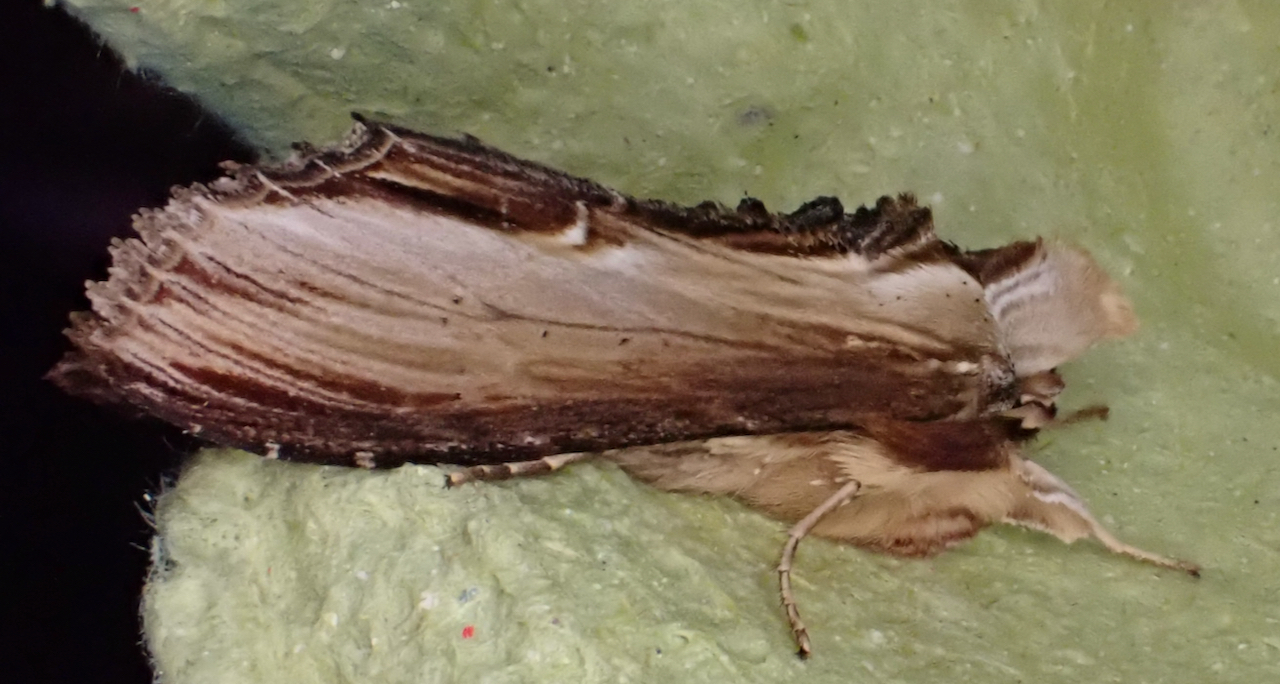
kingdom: Animalia
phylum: Arthropoda
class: Insecta
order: Lepidoptera
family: Noctuidae
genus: Cucullia
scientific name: Cucullia verbasci
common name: Mullein
